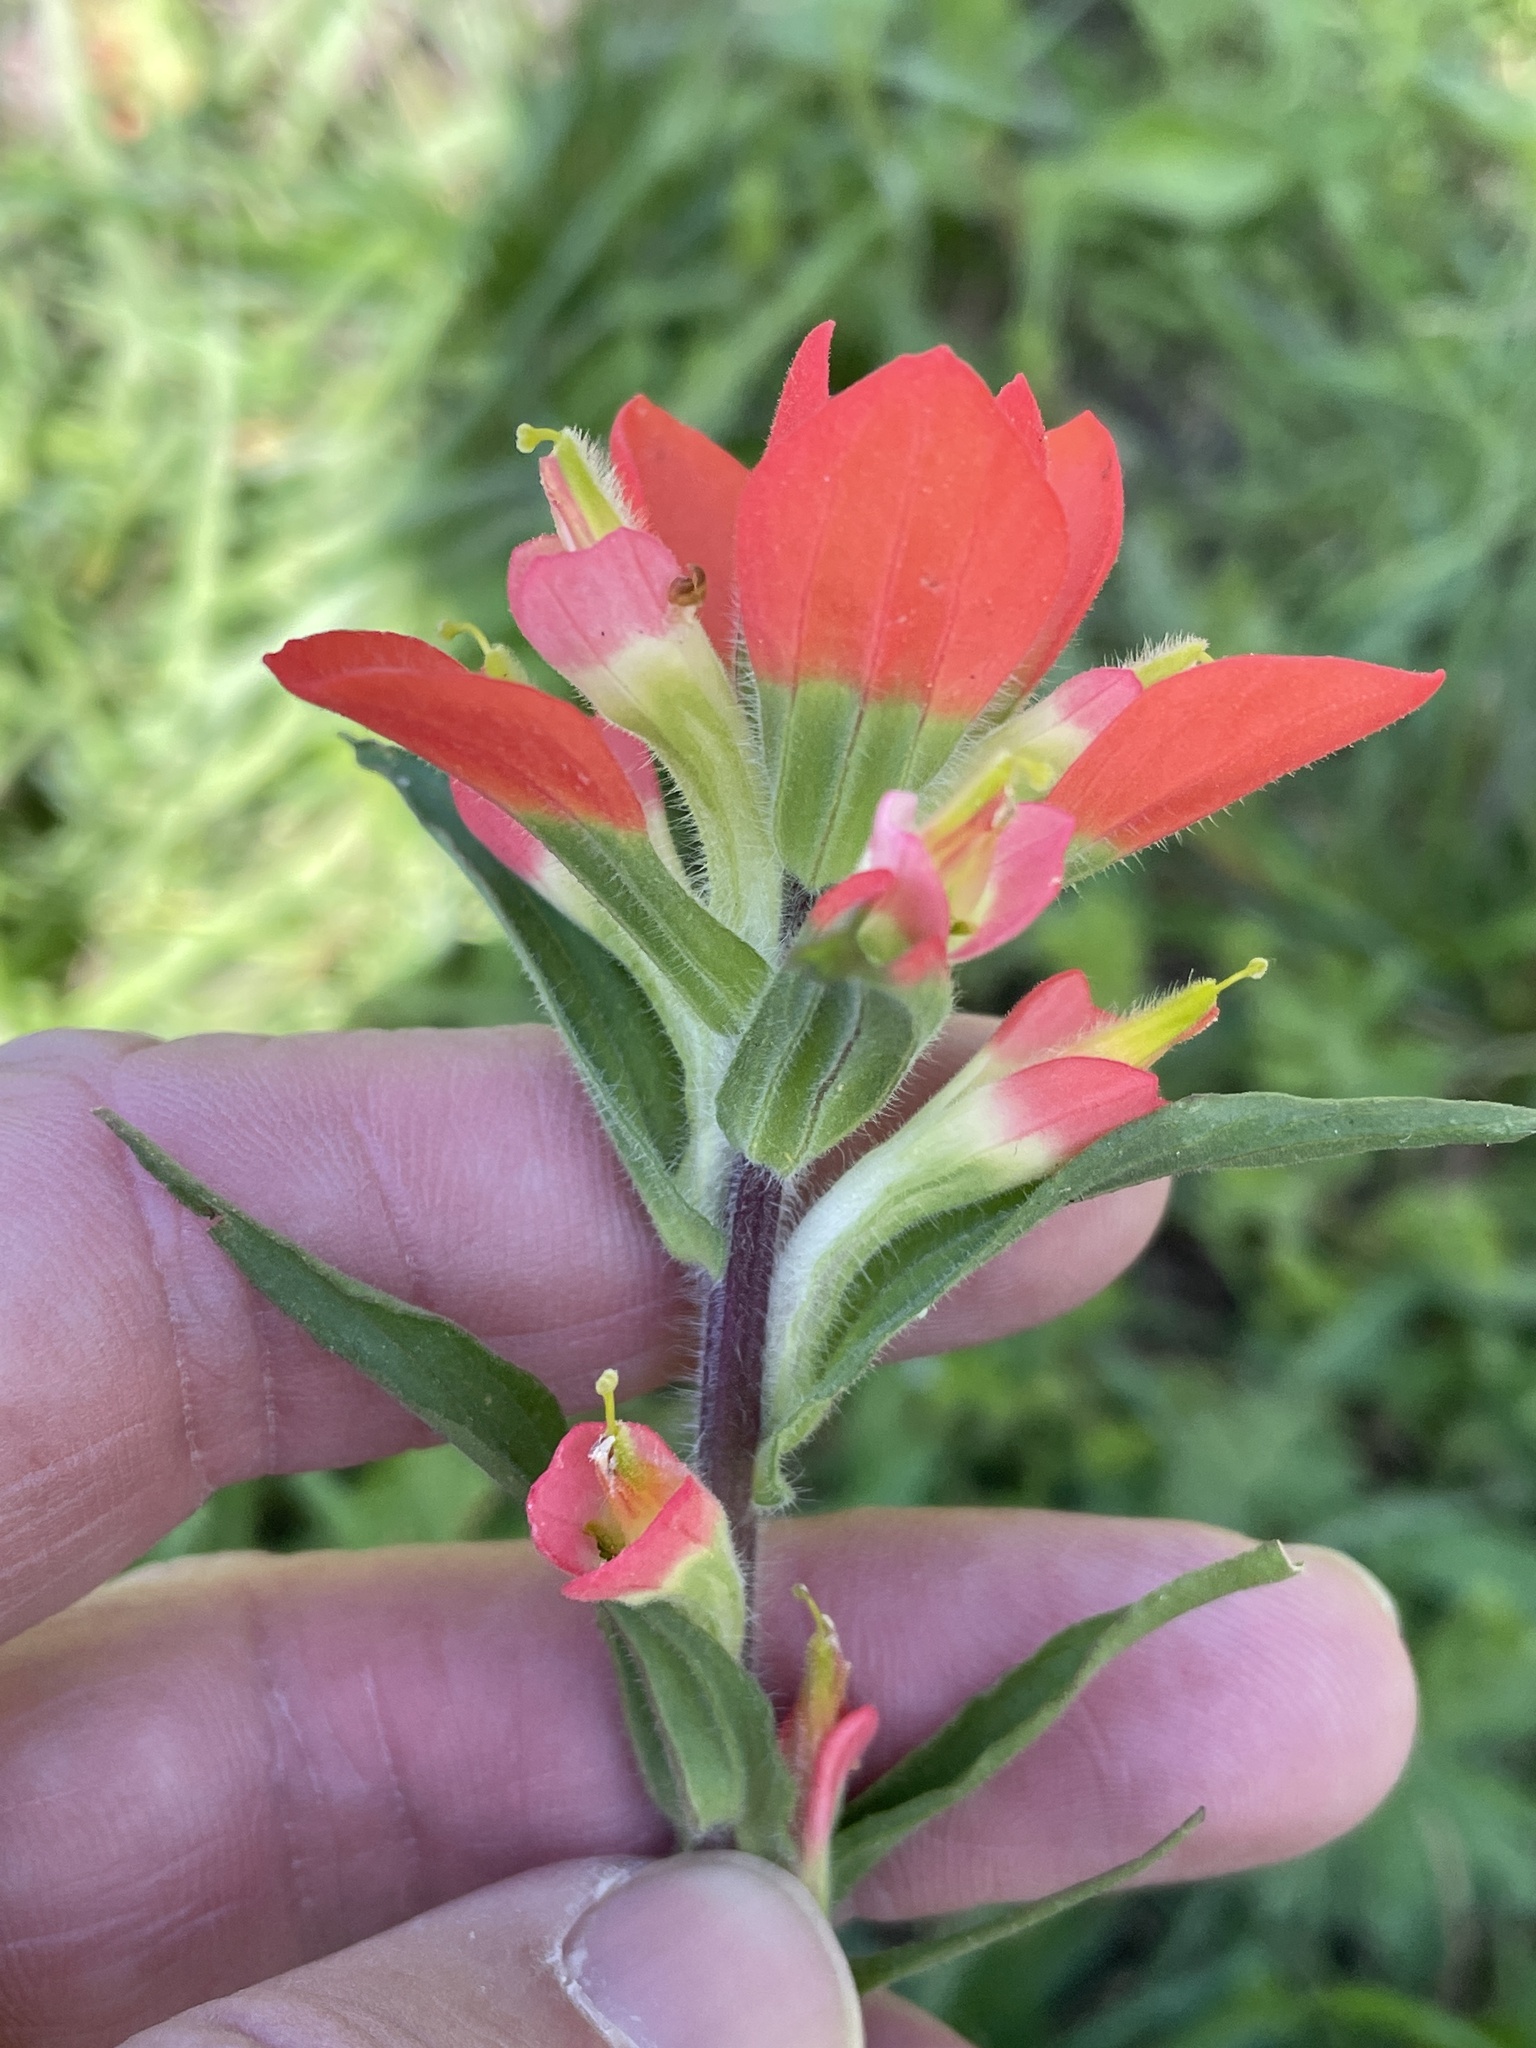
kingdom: Plantae
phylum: Tracheophyta
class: Magnoliopsida
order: Lamiales
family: Orobanchaceae
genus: Castilleja
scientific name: Castilleja indivisa
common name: Texas paintbrush
